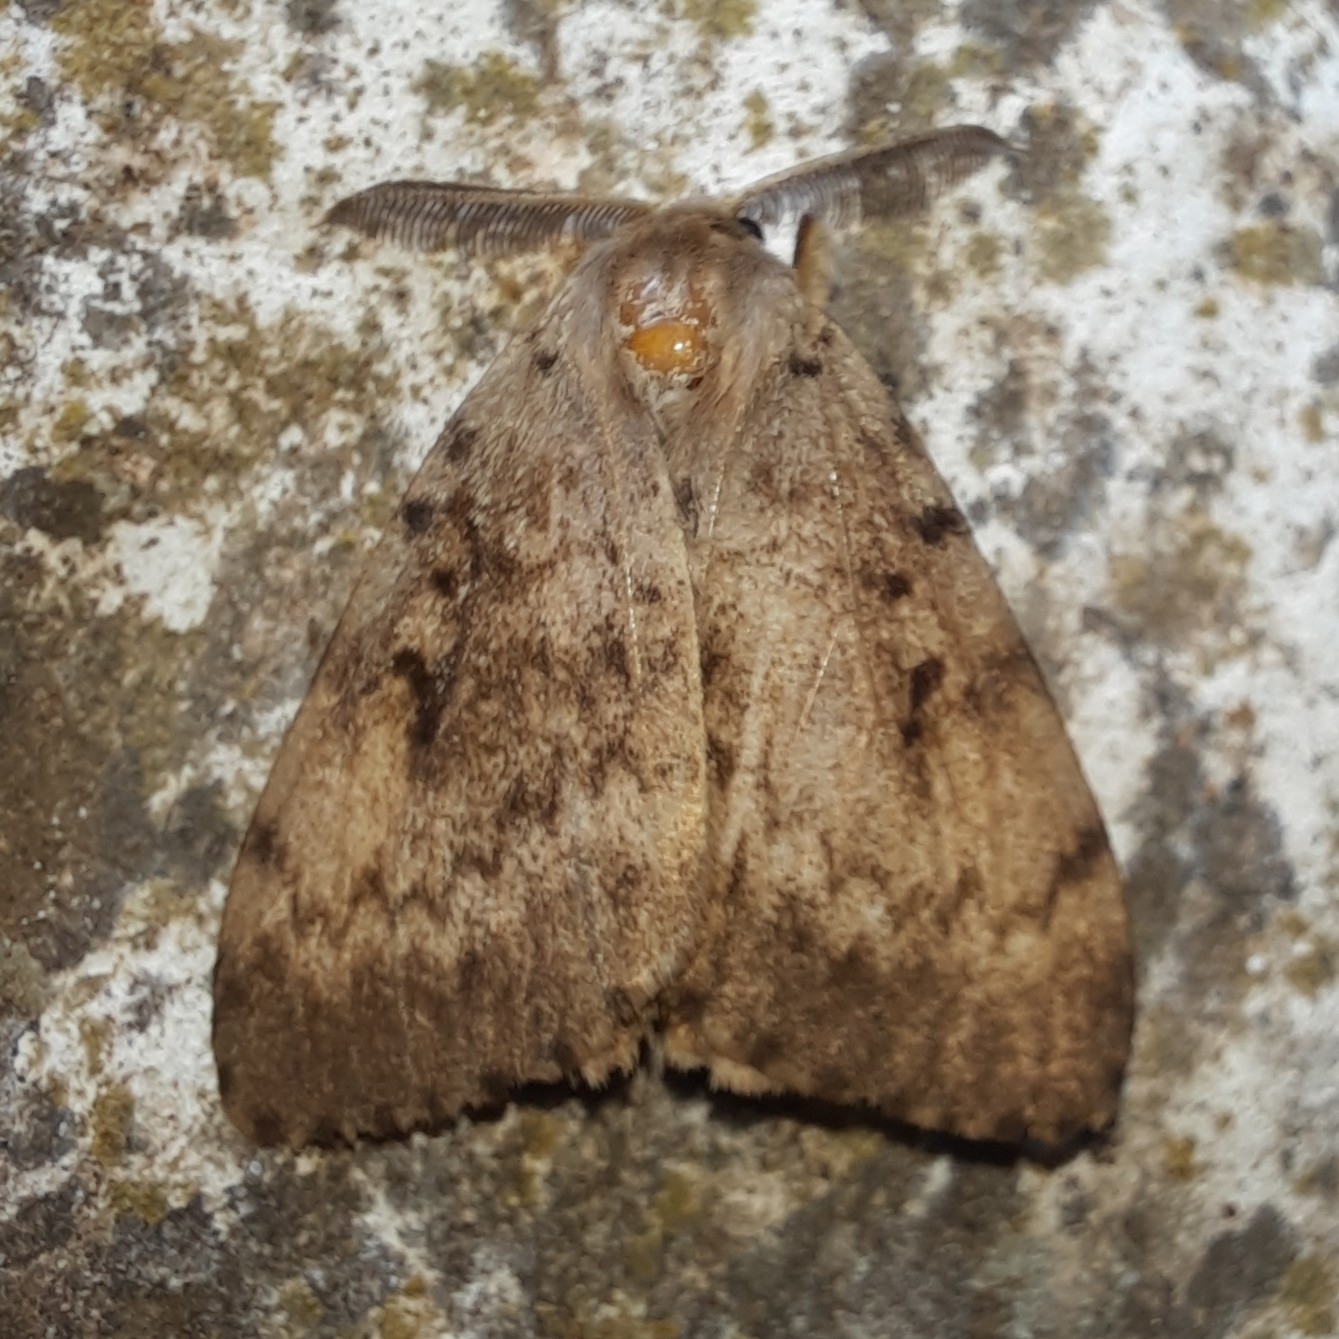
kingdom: Animalia
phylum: Arthropoda
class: Insecta
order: Lepidoptera
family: Erebidae
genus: Lymantria
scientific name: Lymantria dispar
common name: Gypsy moth
